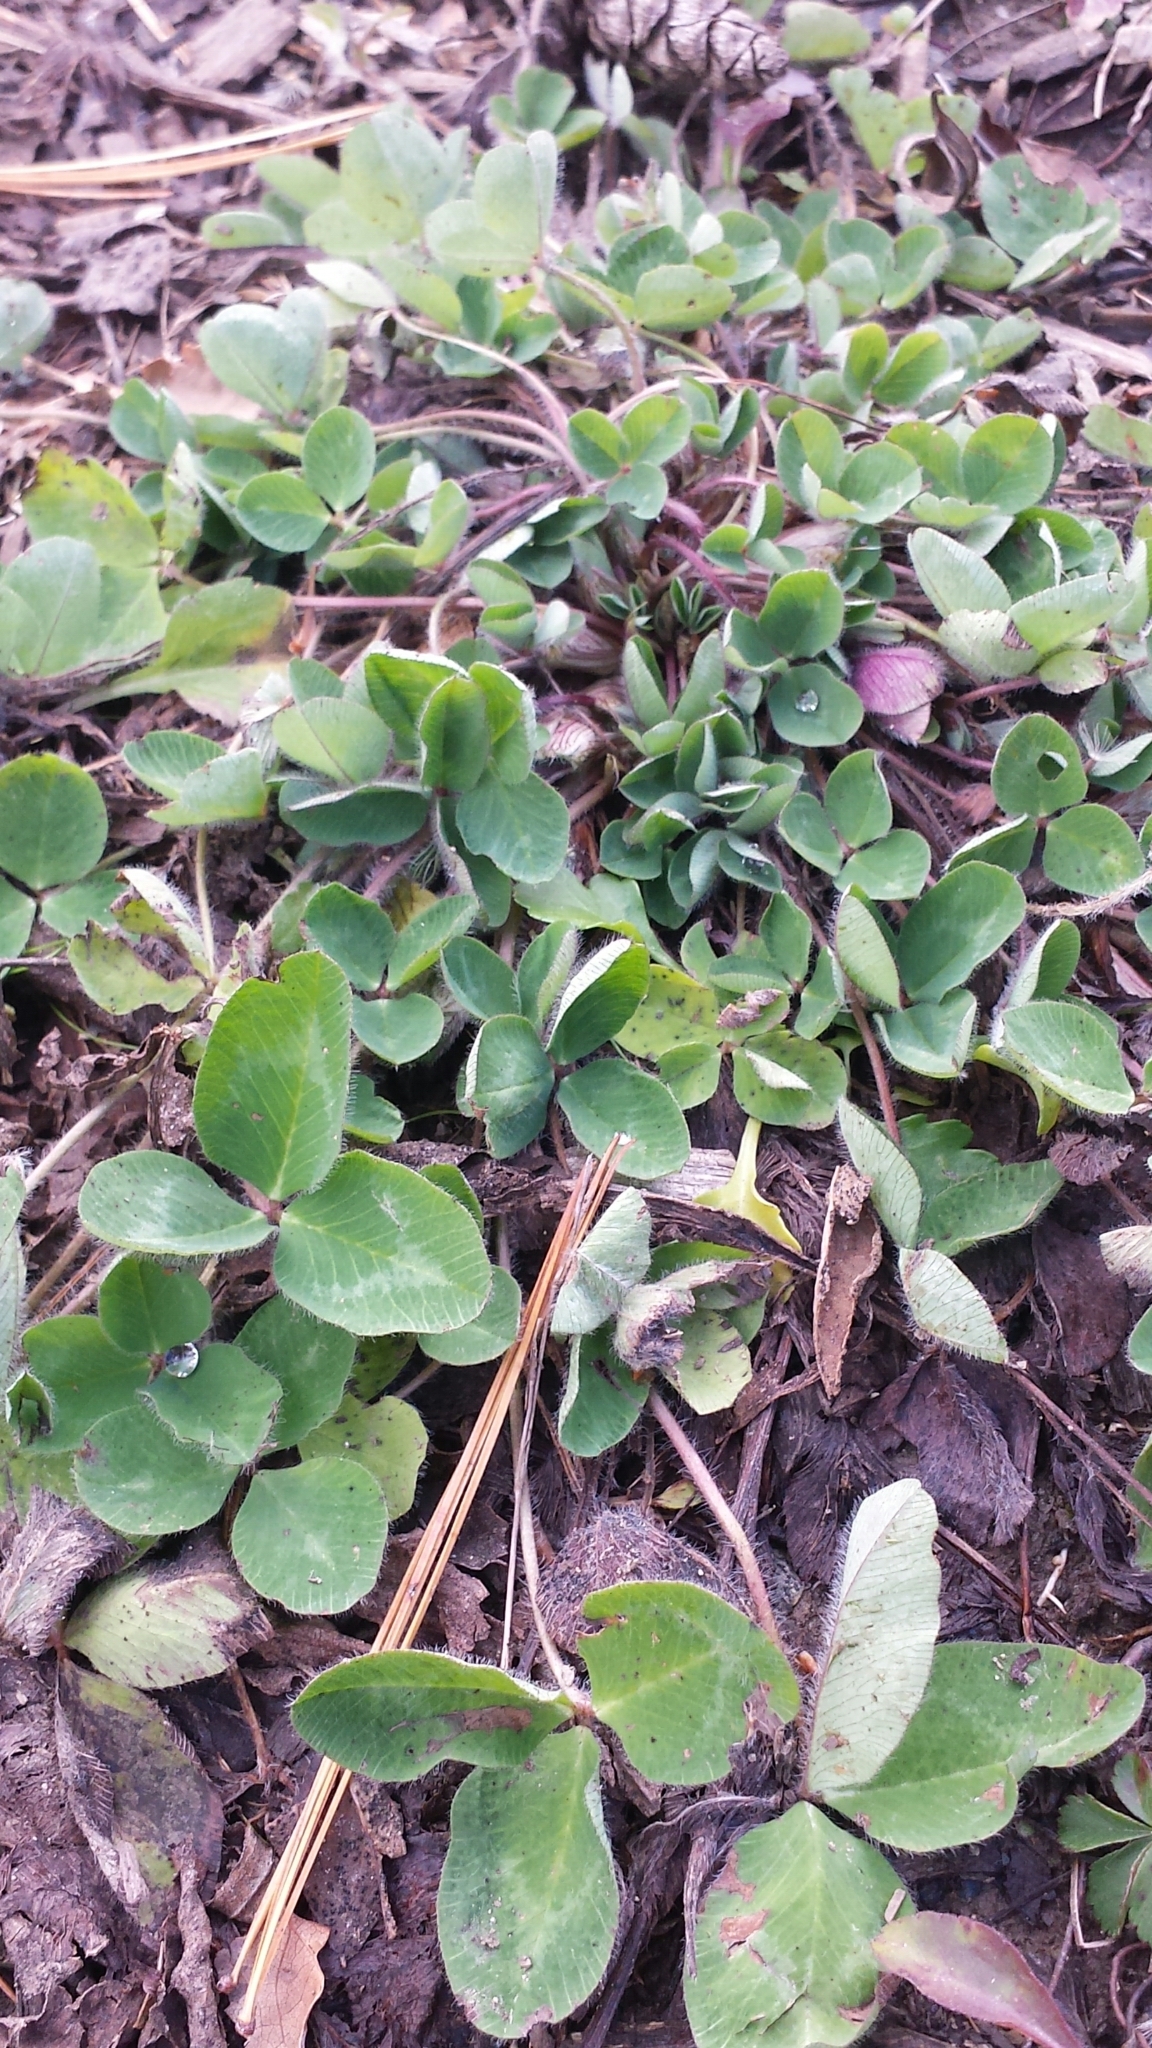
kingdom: Plantae
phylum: Tracheophyta
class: Magnoliopsida
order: Fabales
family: Fabaceae
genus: Trifolium
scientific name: Trifolium pratense
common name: Red clover
